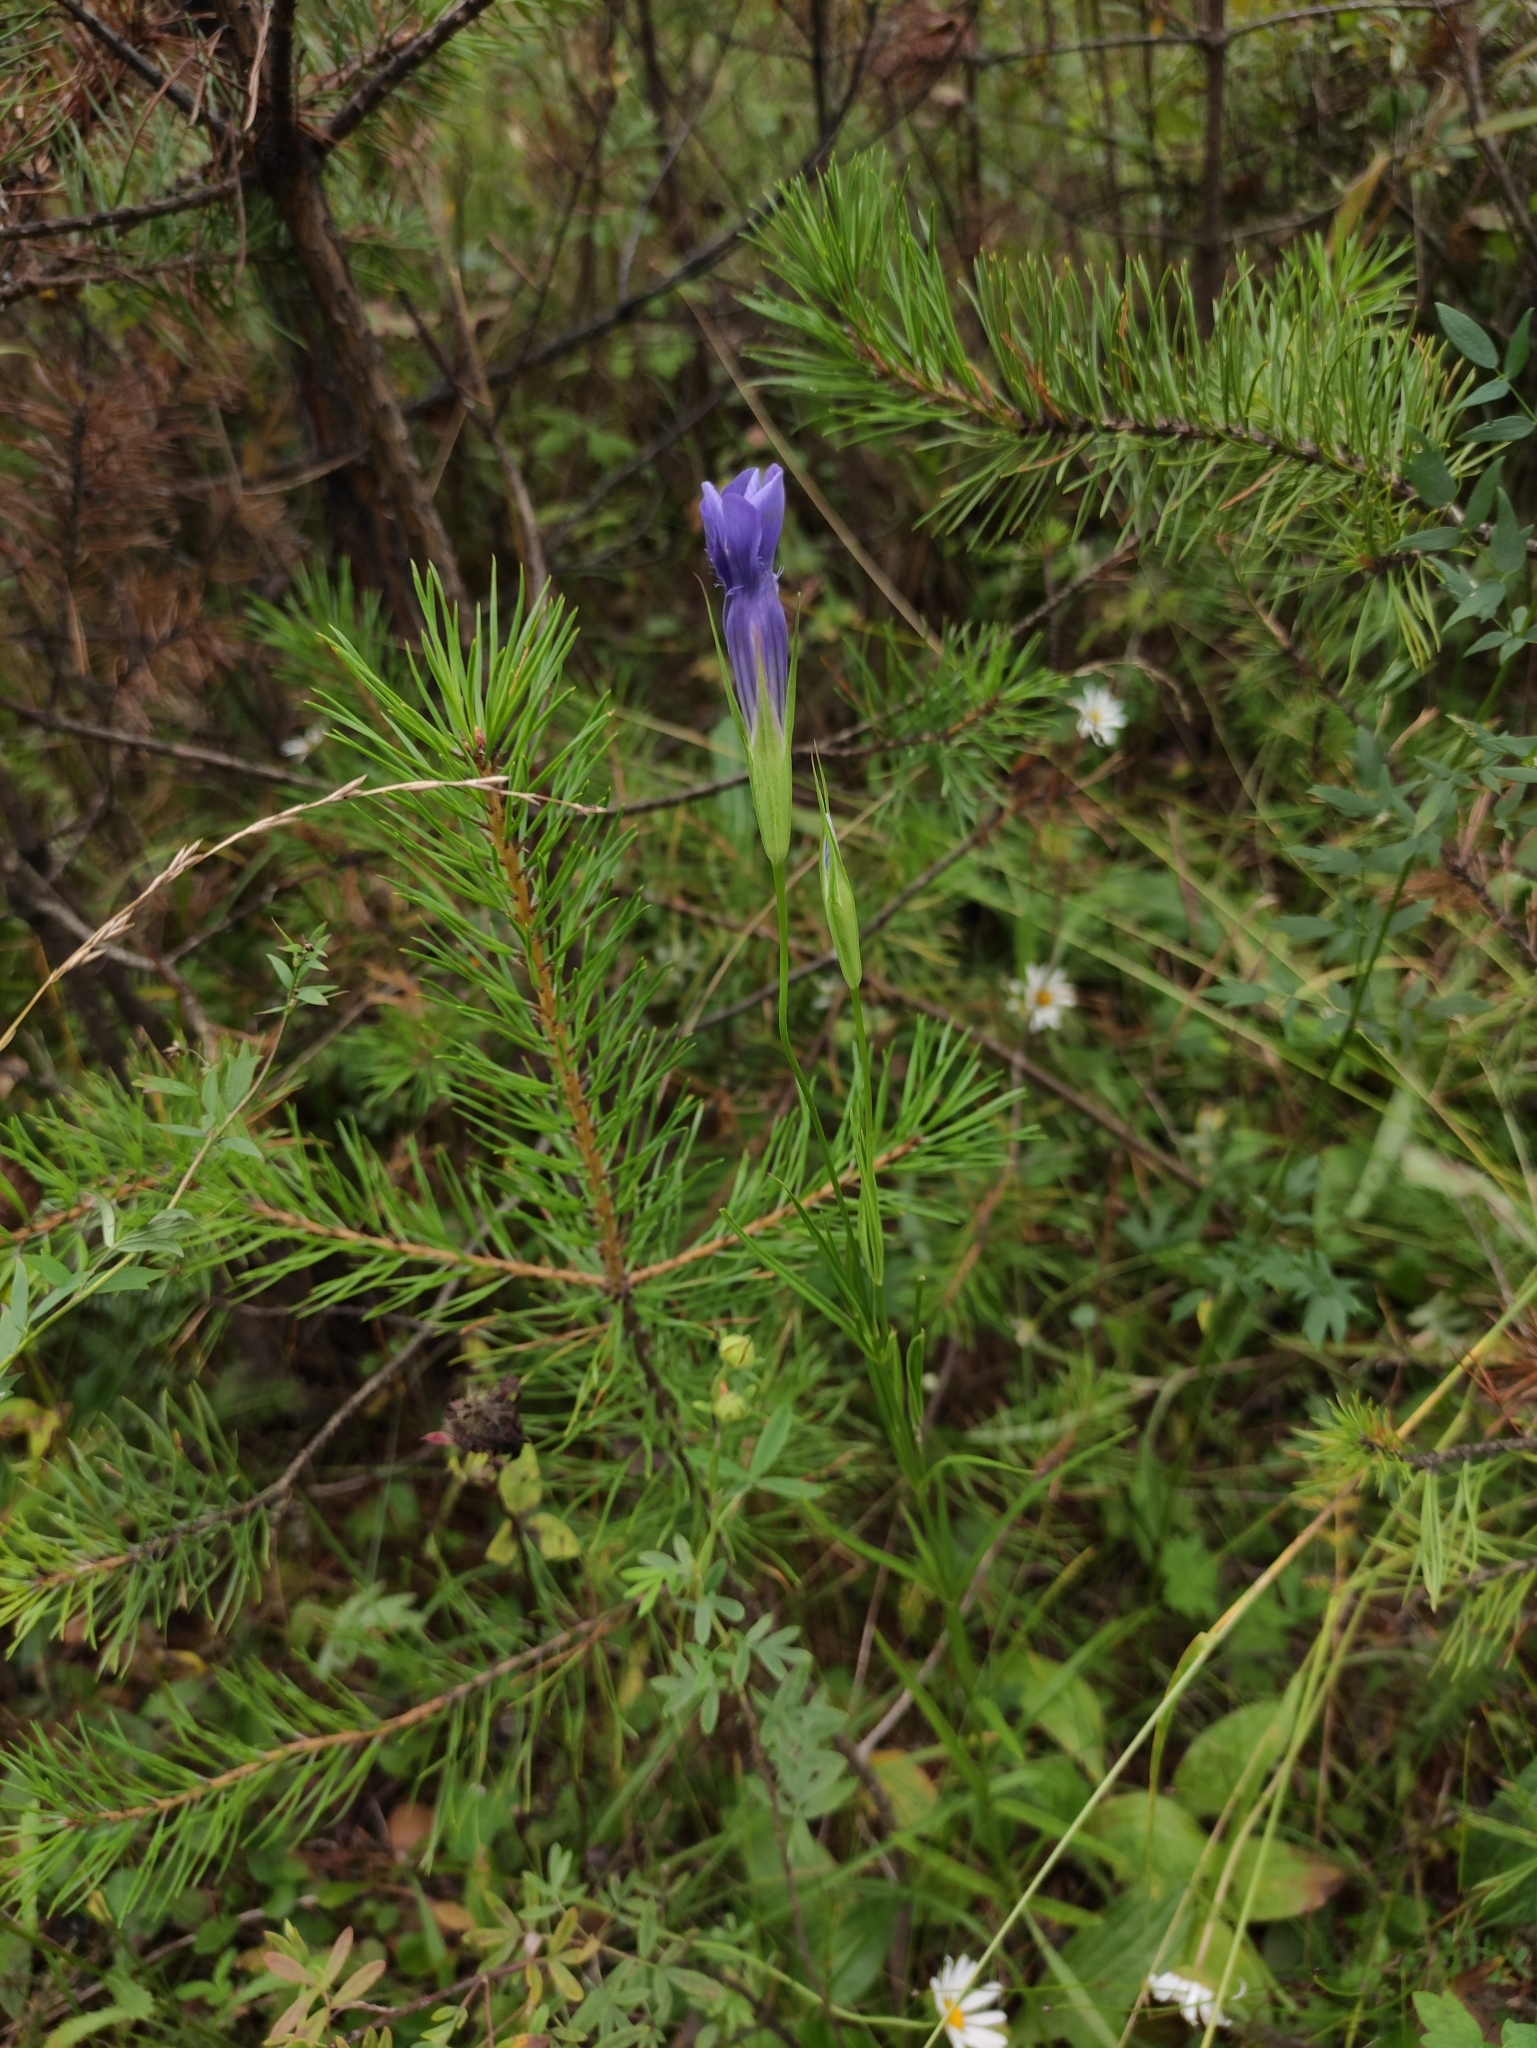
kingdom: Plantae
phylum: Tracheophyta
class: Magnoliopsida
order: Gentianales
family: Gentianaceae
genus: Gentianopsis
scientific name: Gentianopsis barbata
